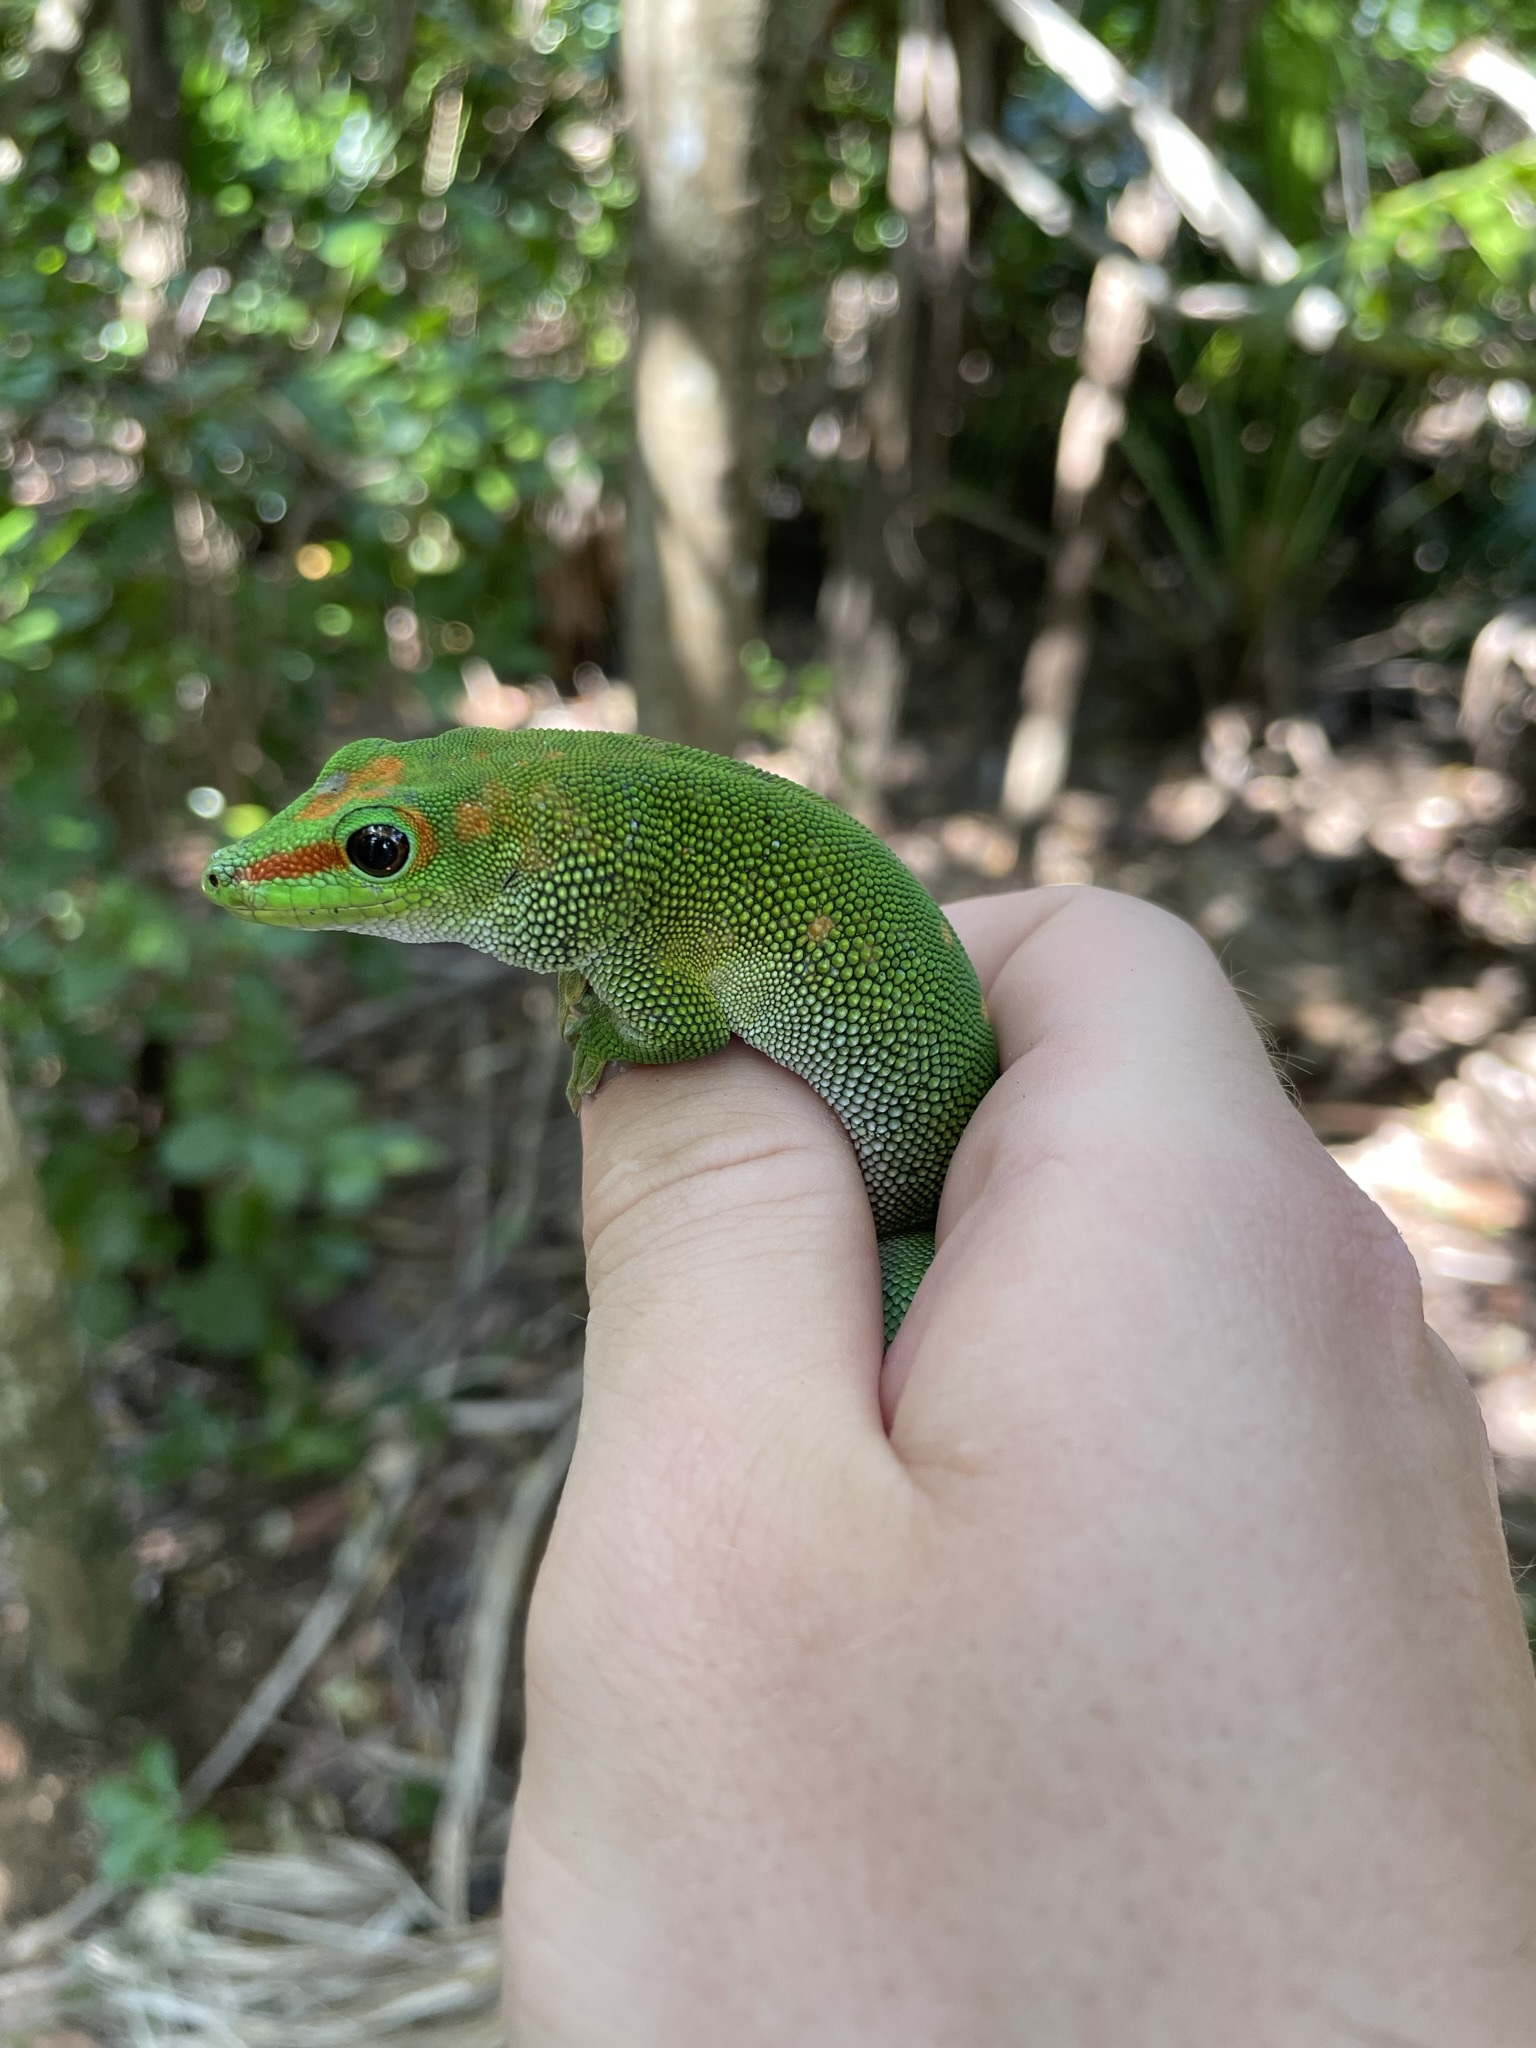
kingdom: Animalia
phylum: Chordata
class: Squamata
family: Gekkonidae
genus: Phelsuma
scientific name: Phelsuma grandis
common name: Madagascar giant day gecko
